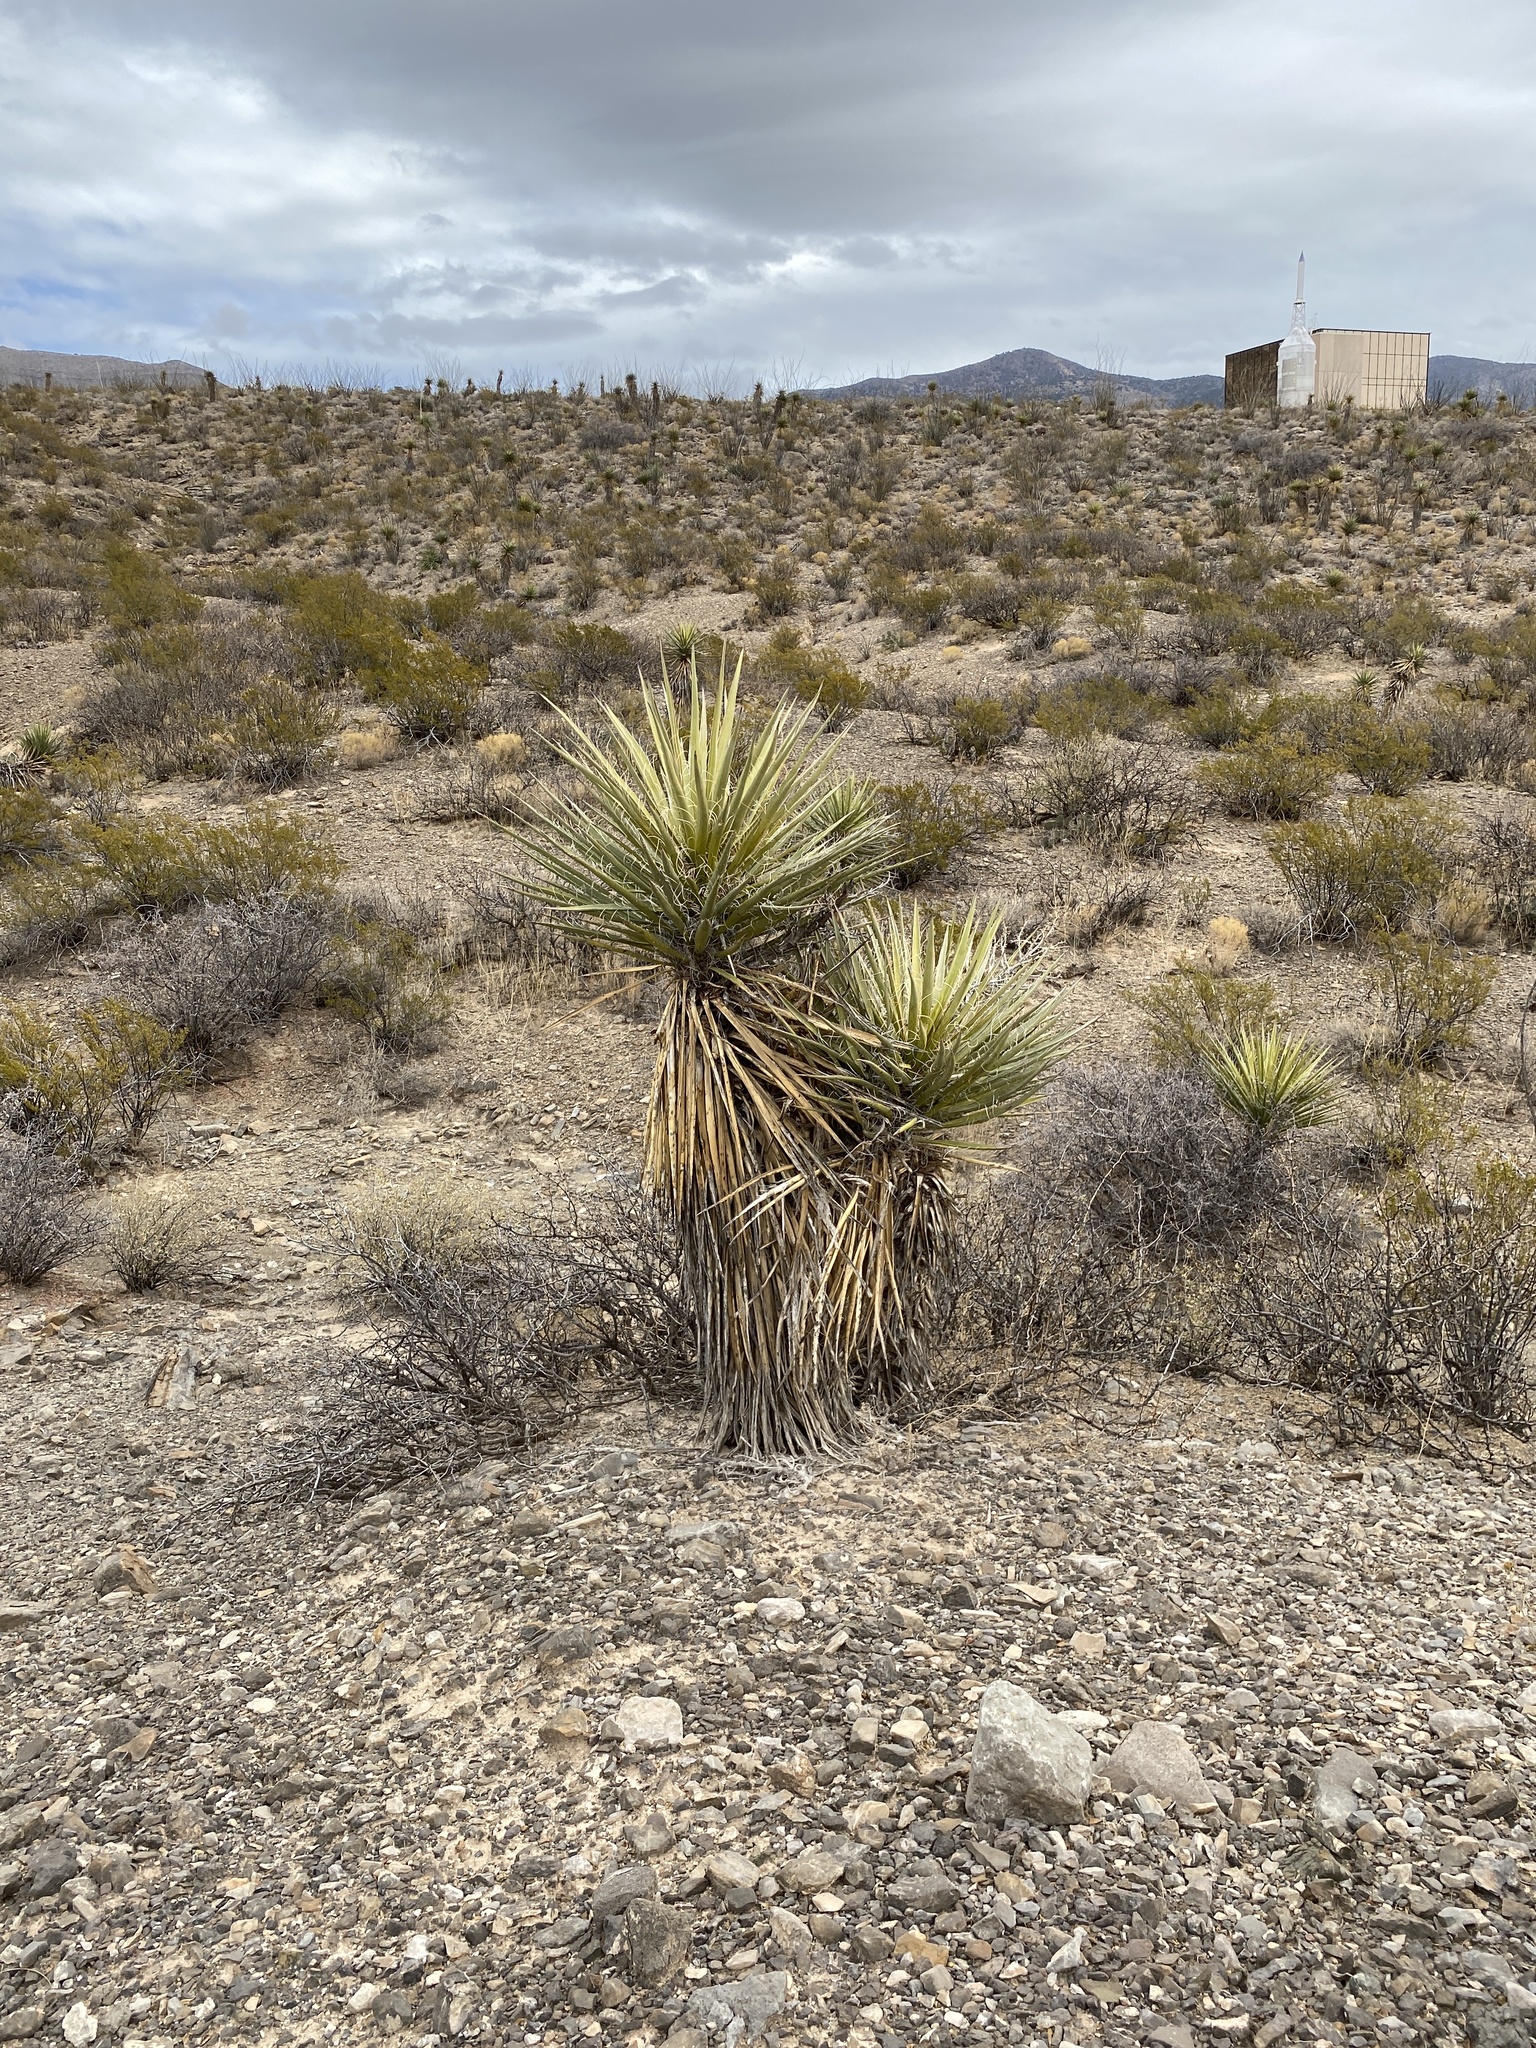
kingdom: Plantae
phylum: Tracheophyta
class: Liliopsida
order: Asparagales
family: Asparagaceae
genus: Yucca
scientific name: Yucca treculiana
